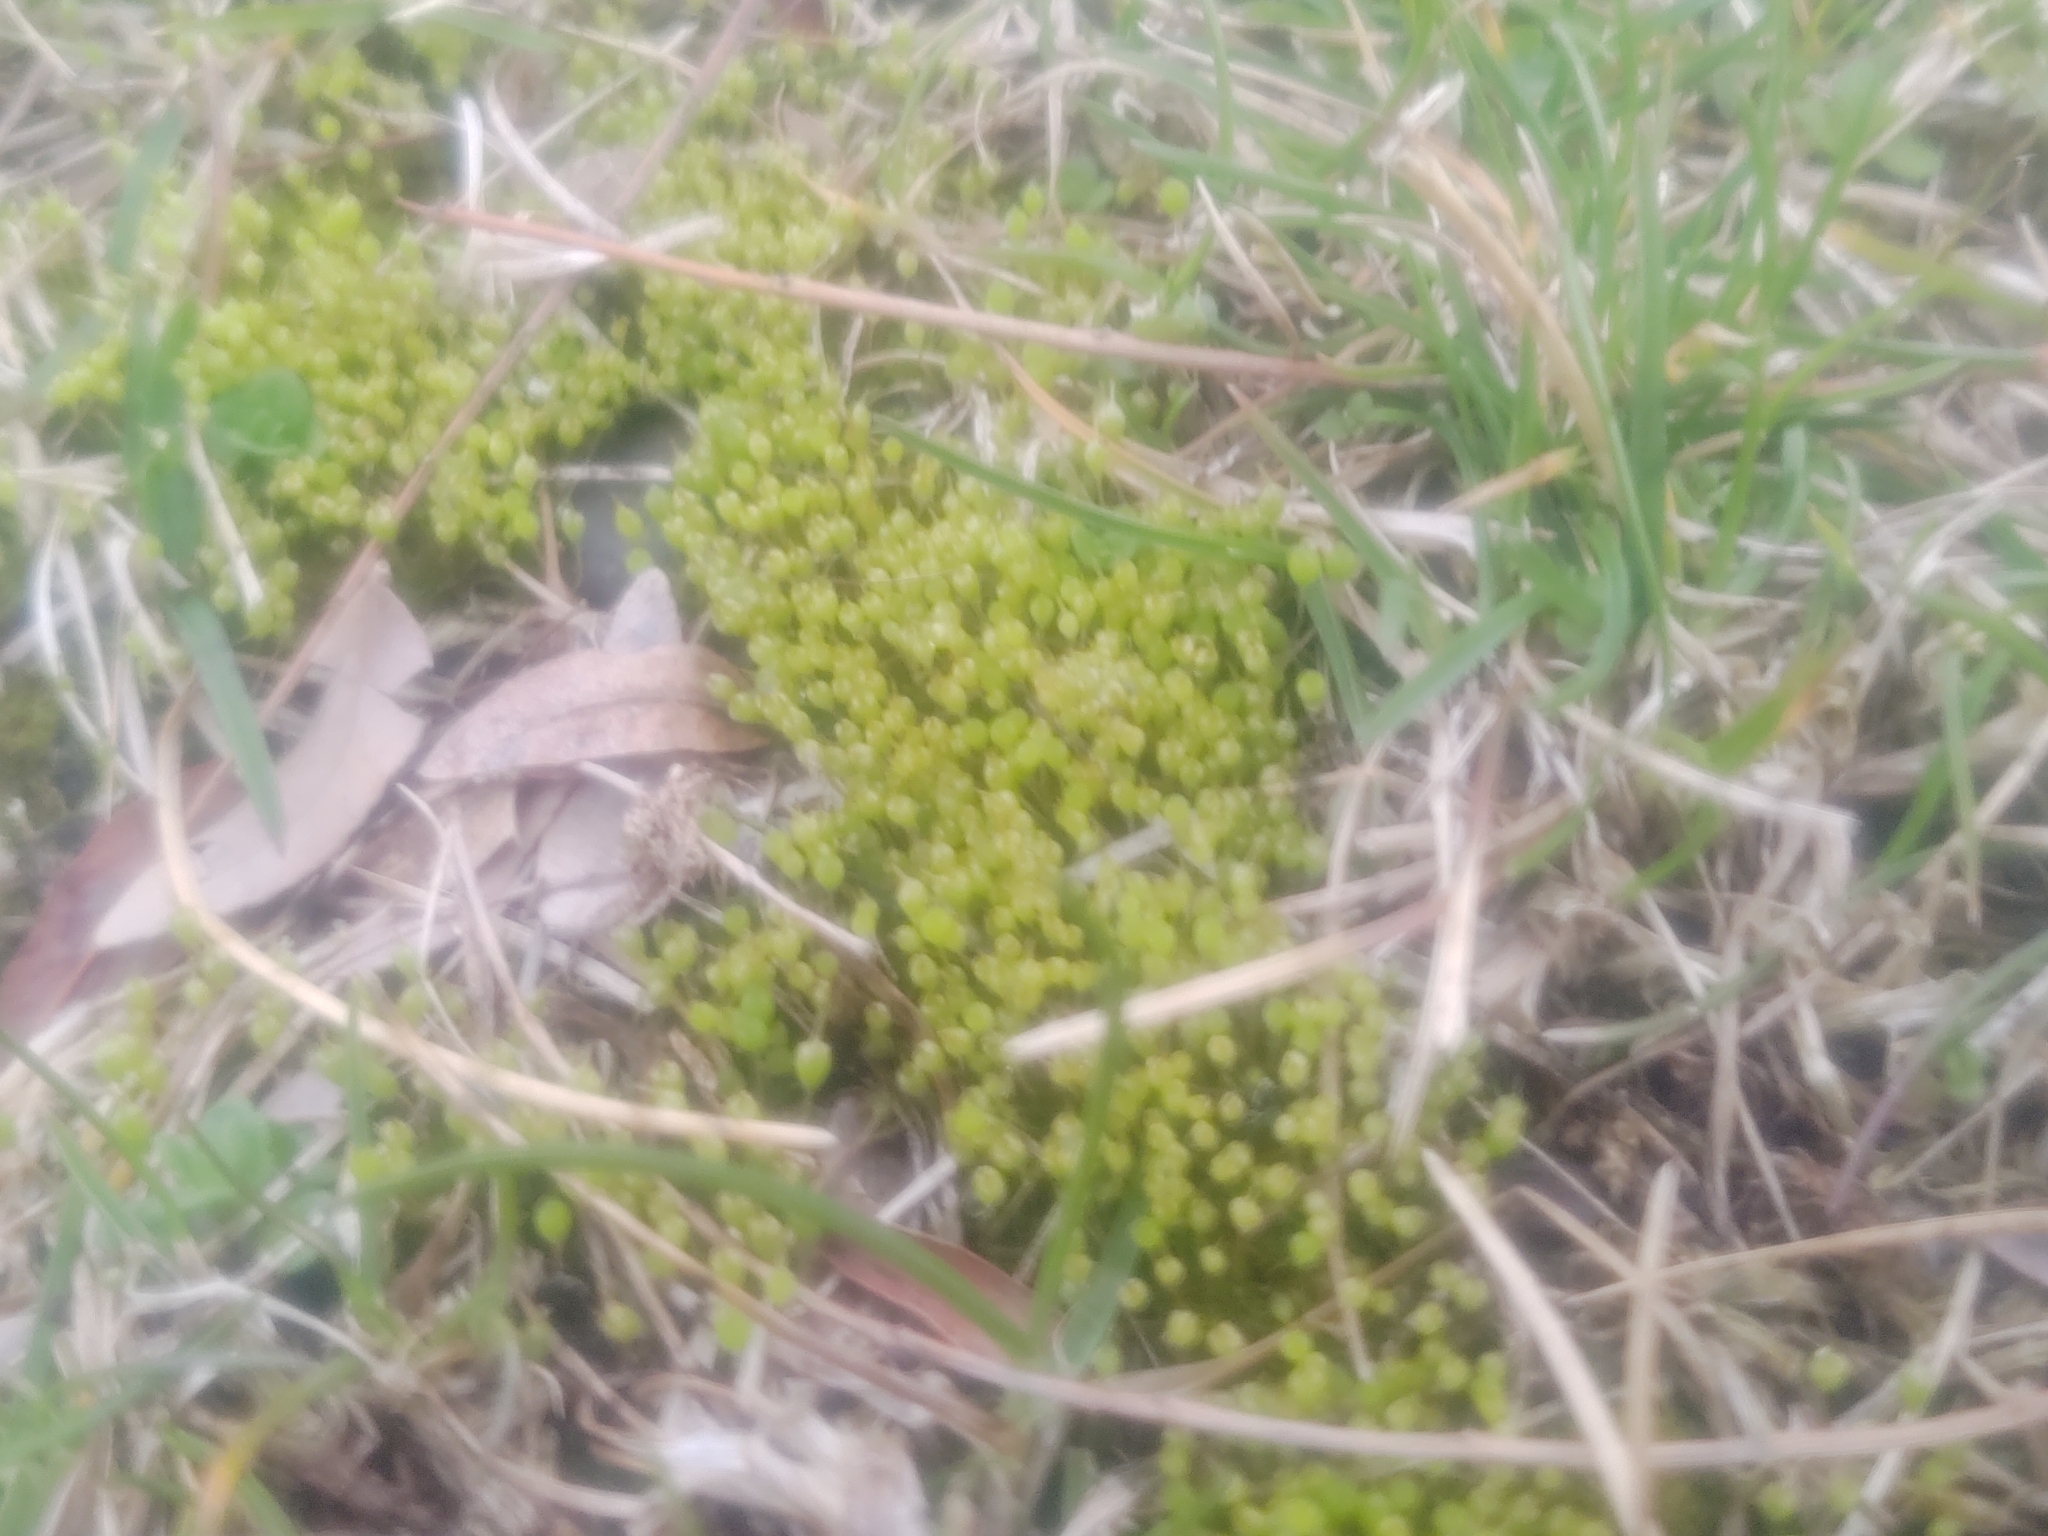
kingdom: Plantae
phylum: Bryophyta
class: Bryopsida
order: Funariales
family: Funariaceae
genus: Physcomitrium
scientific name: Physcomitrium pyriforme
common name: Common bladder-moss
